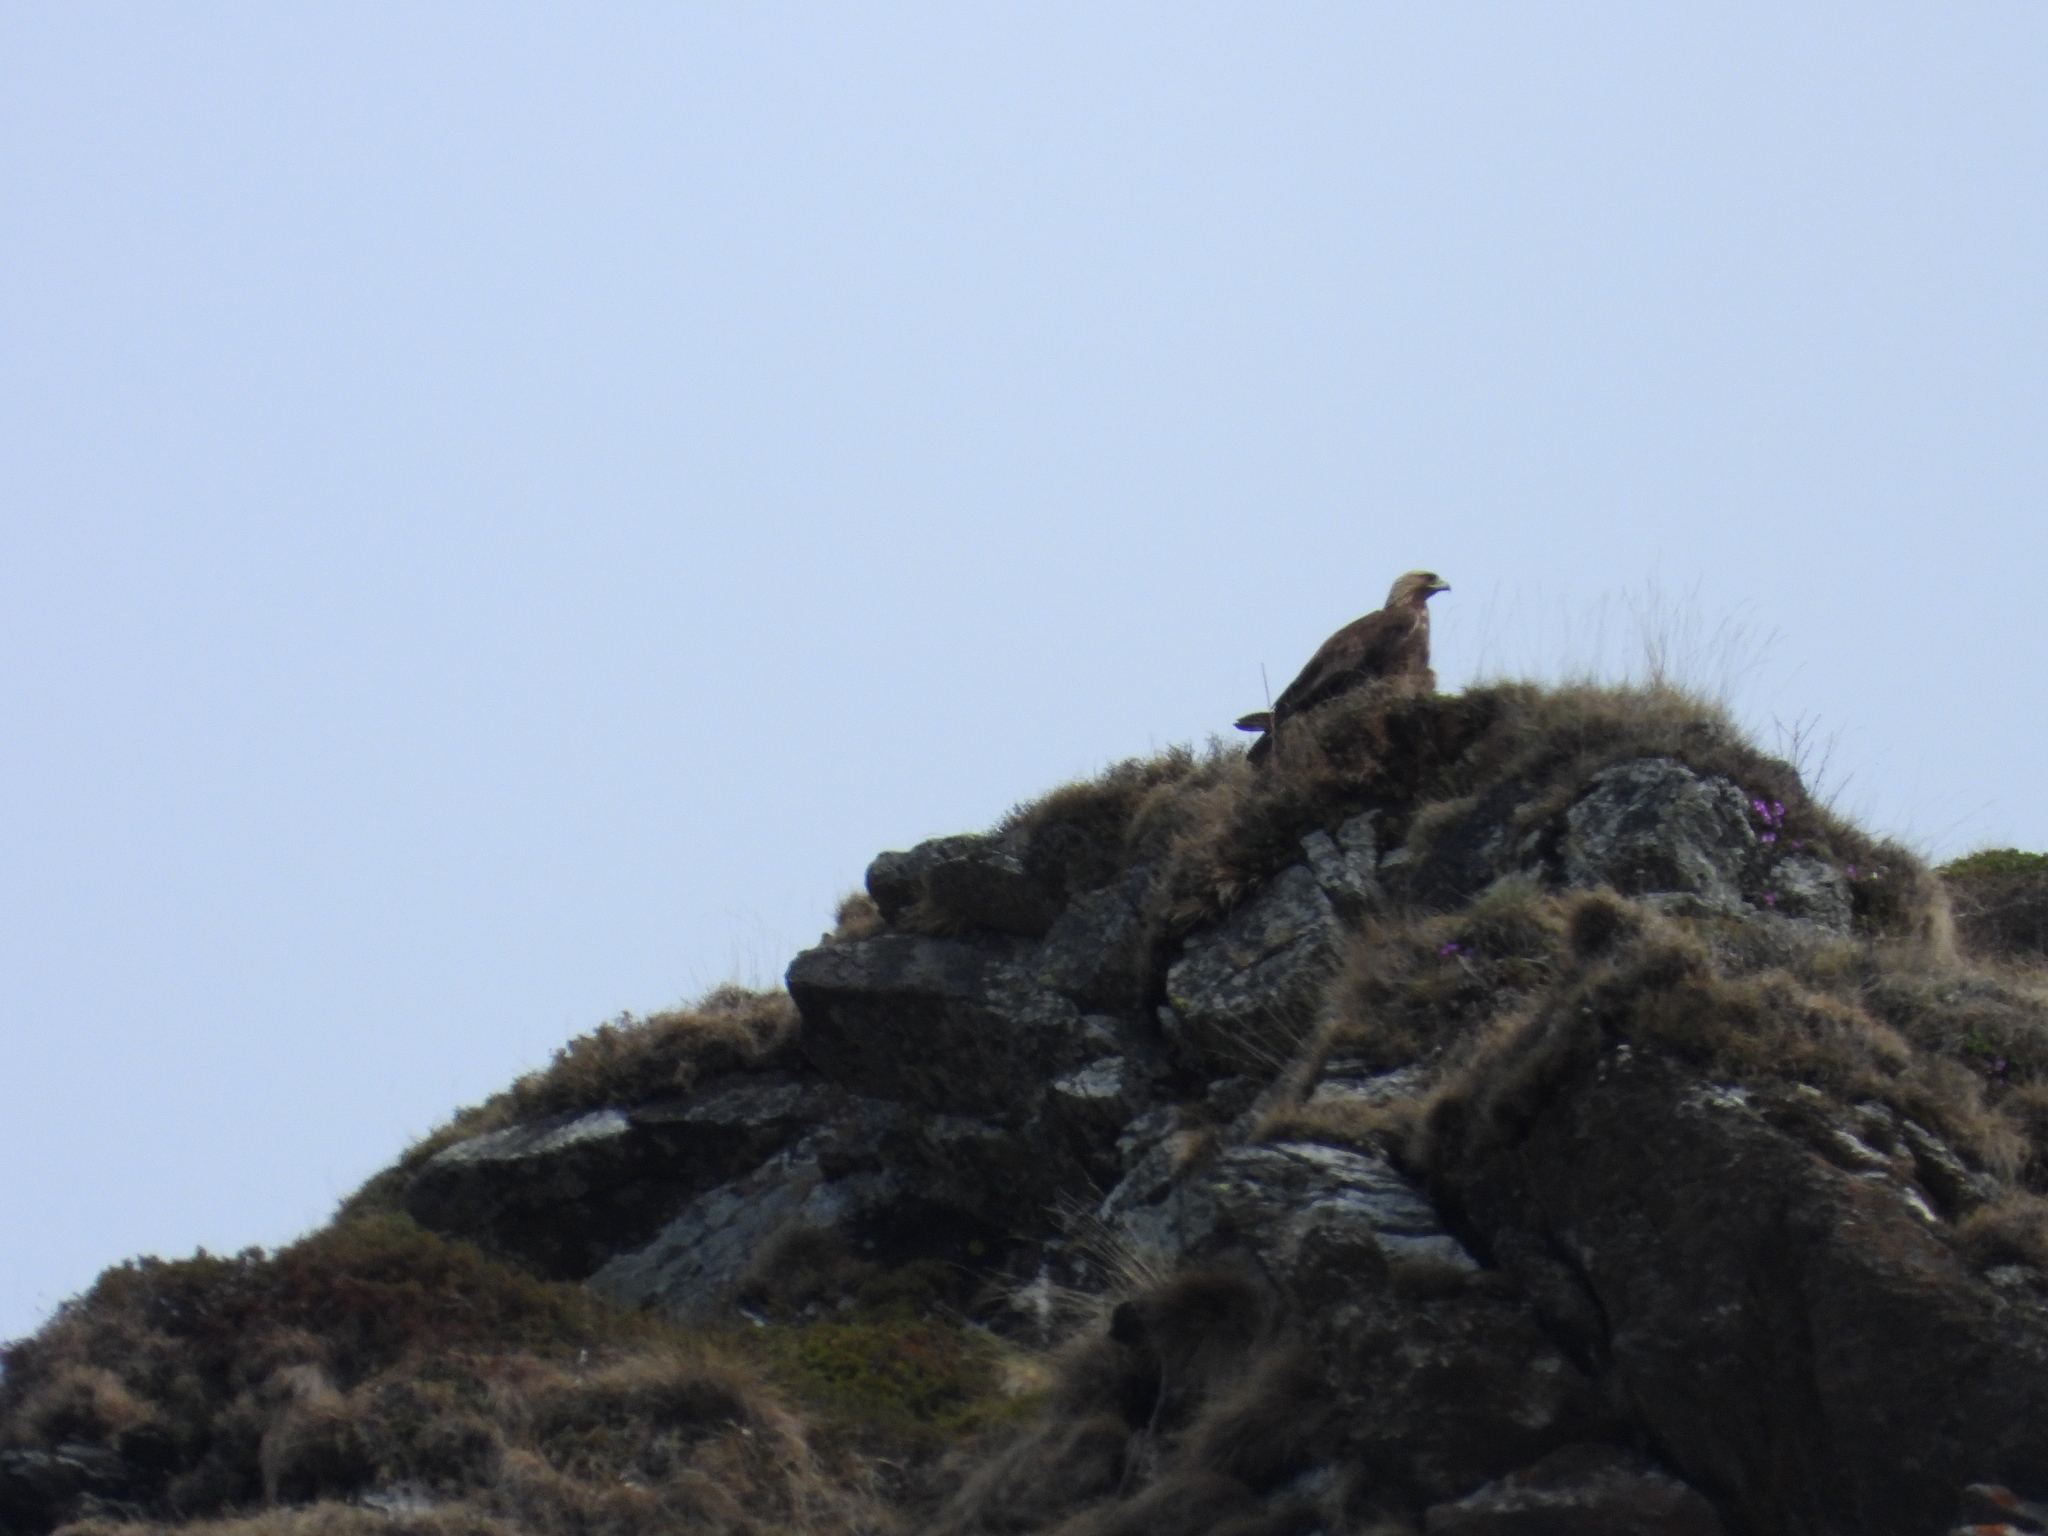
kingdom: Animalia
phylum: Chordata
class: Aves
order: Accipitriformes
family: Accipitridae
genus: Aquila
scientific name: Aquila chrysaetos
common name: Golden eagle
